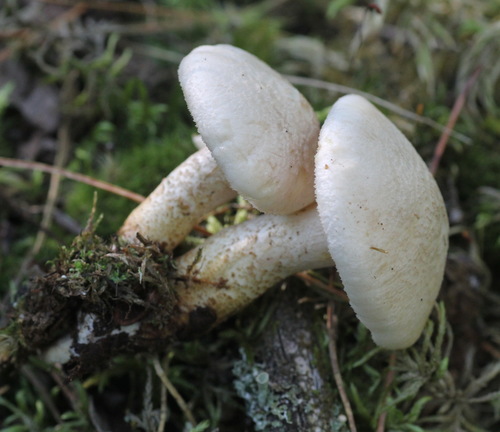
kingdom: Fungi
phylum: Basidiomycota
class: Agaricomycetes
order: Gloeophyllales
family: Gloeophyllaceae
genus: Neolentinus
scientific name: Neolentinus lepideus
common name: Scaly sawgill
